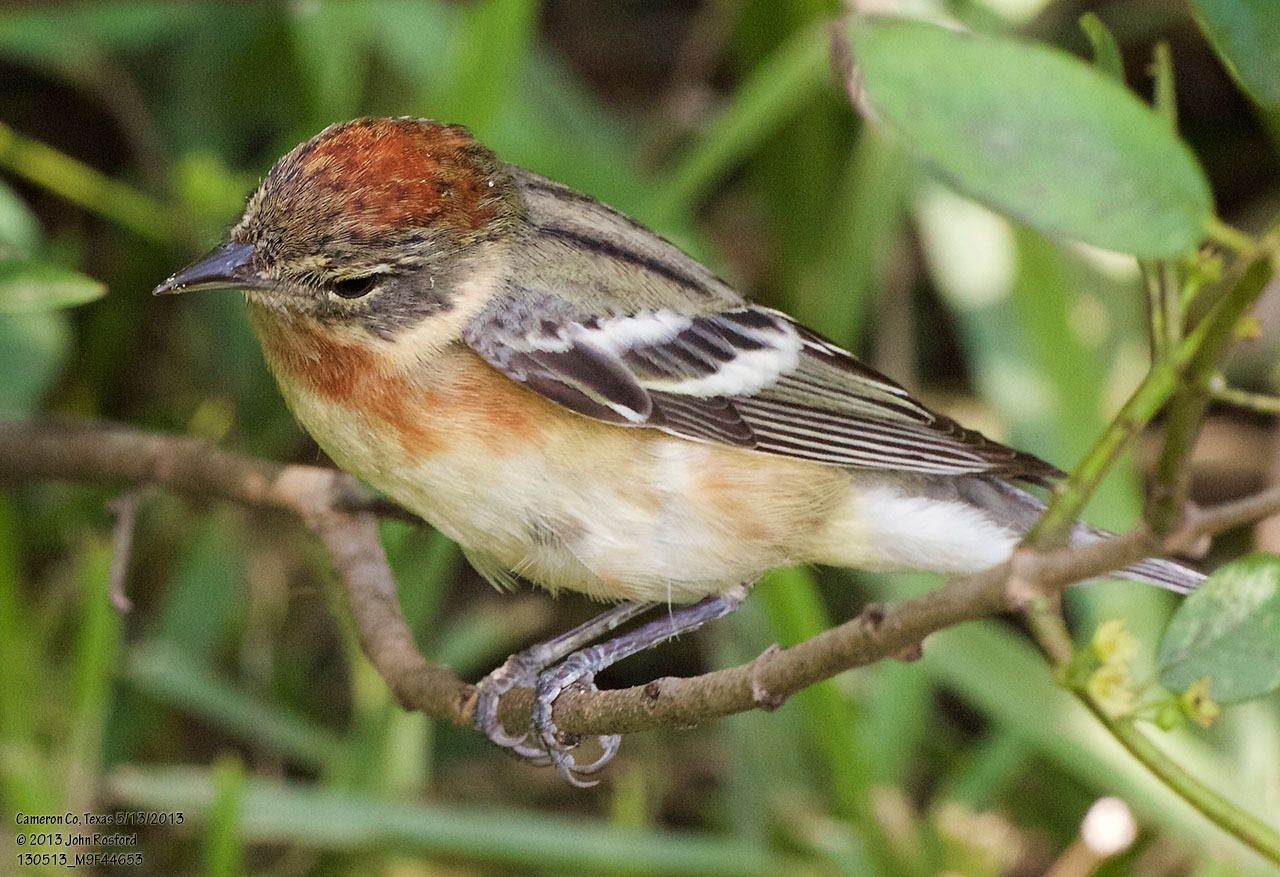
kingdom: Animalia
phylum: Chordata
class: Aves
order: Passeriformes
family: Parulidae
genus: Setophaga
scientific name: Setophaga castanea
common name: Bay-breasted warbler
